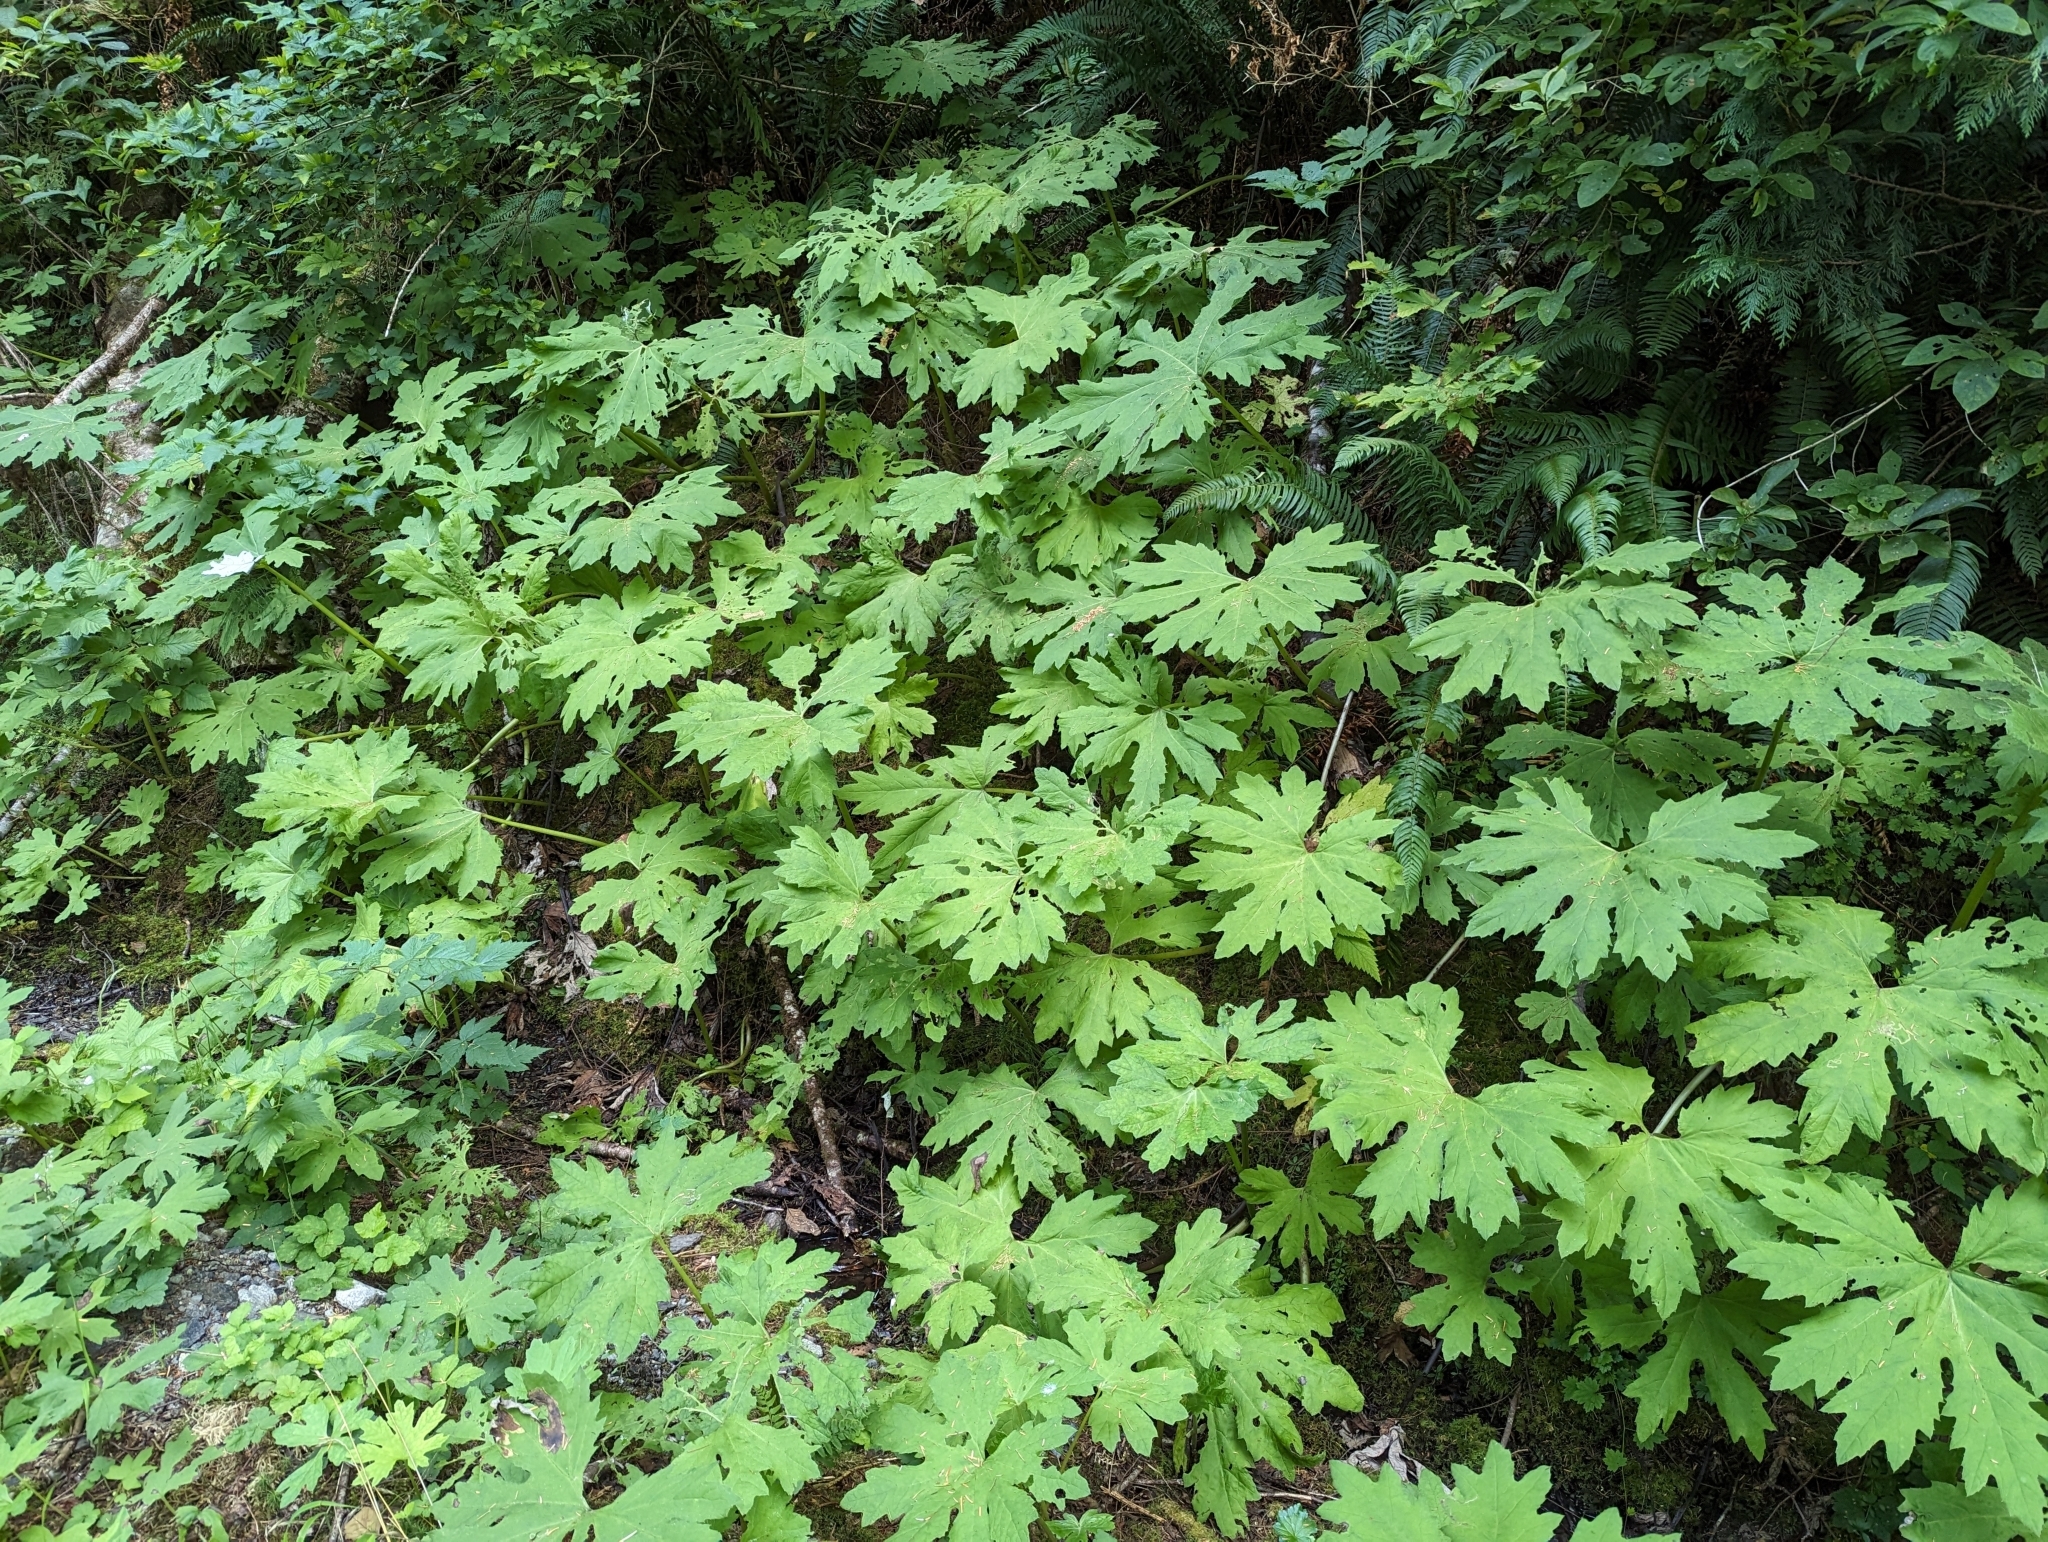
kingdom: Plantae
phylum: Tracheophyta
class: Magnoliopsida
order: Asterales
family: Asteraceae
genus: Petasites
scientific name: Petasites frigidus
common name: Arctic butterbur
